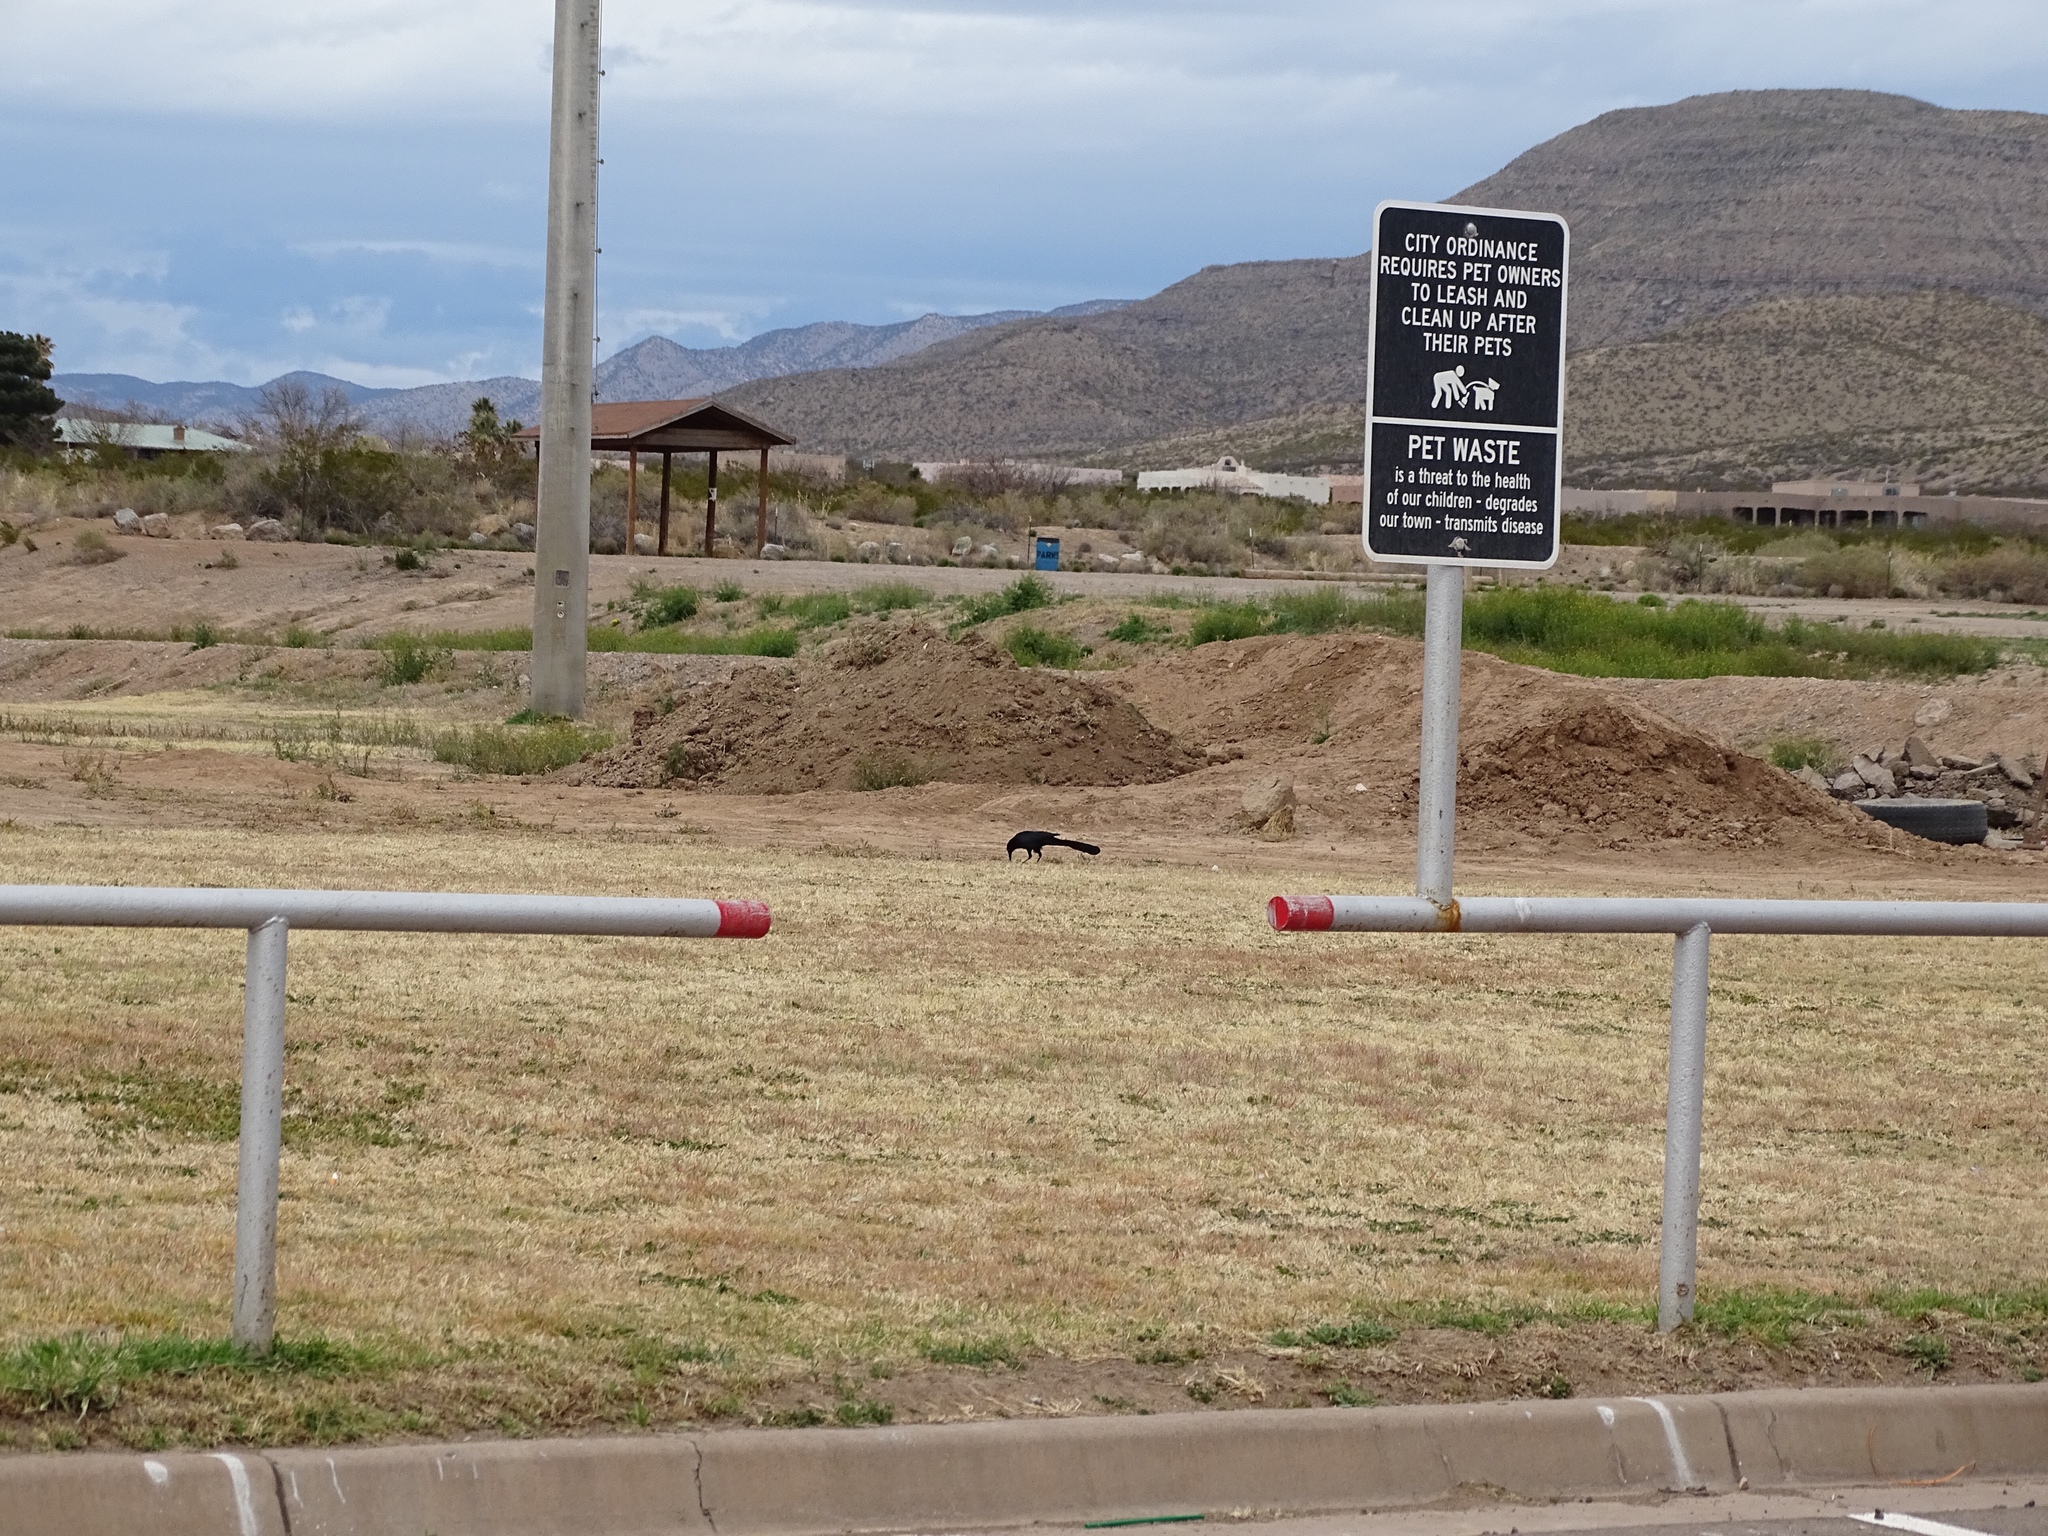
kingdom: Animalia
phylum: Chordata
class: Aves
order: Passeriformes
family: Icteridae
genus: Quiscalus
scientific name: Quiscalus mexicanus
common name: Great-tailed grackle
